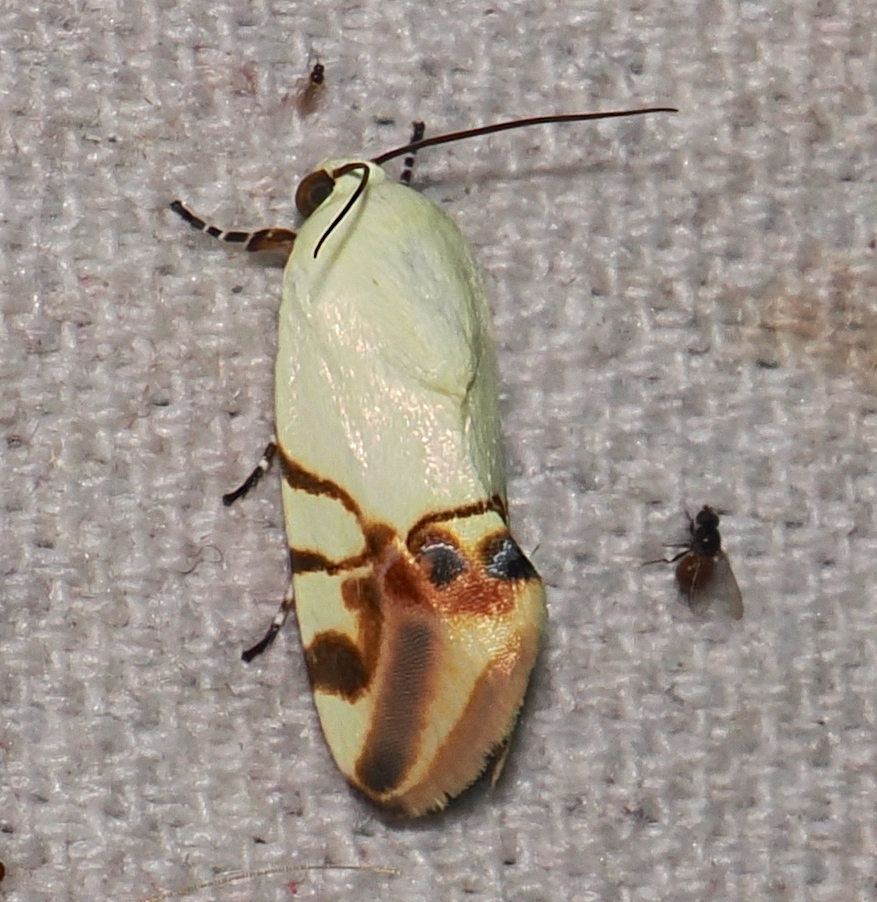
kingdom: Animalia
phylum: Arthropoda
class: Insecta
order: Lepidoptera
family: Noctuidae
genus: Eusceptis
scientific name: Eusceptis lelae
